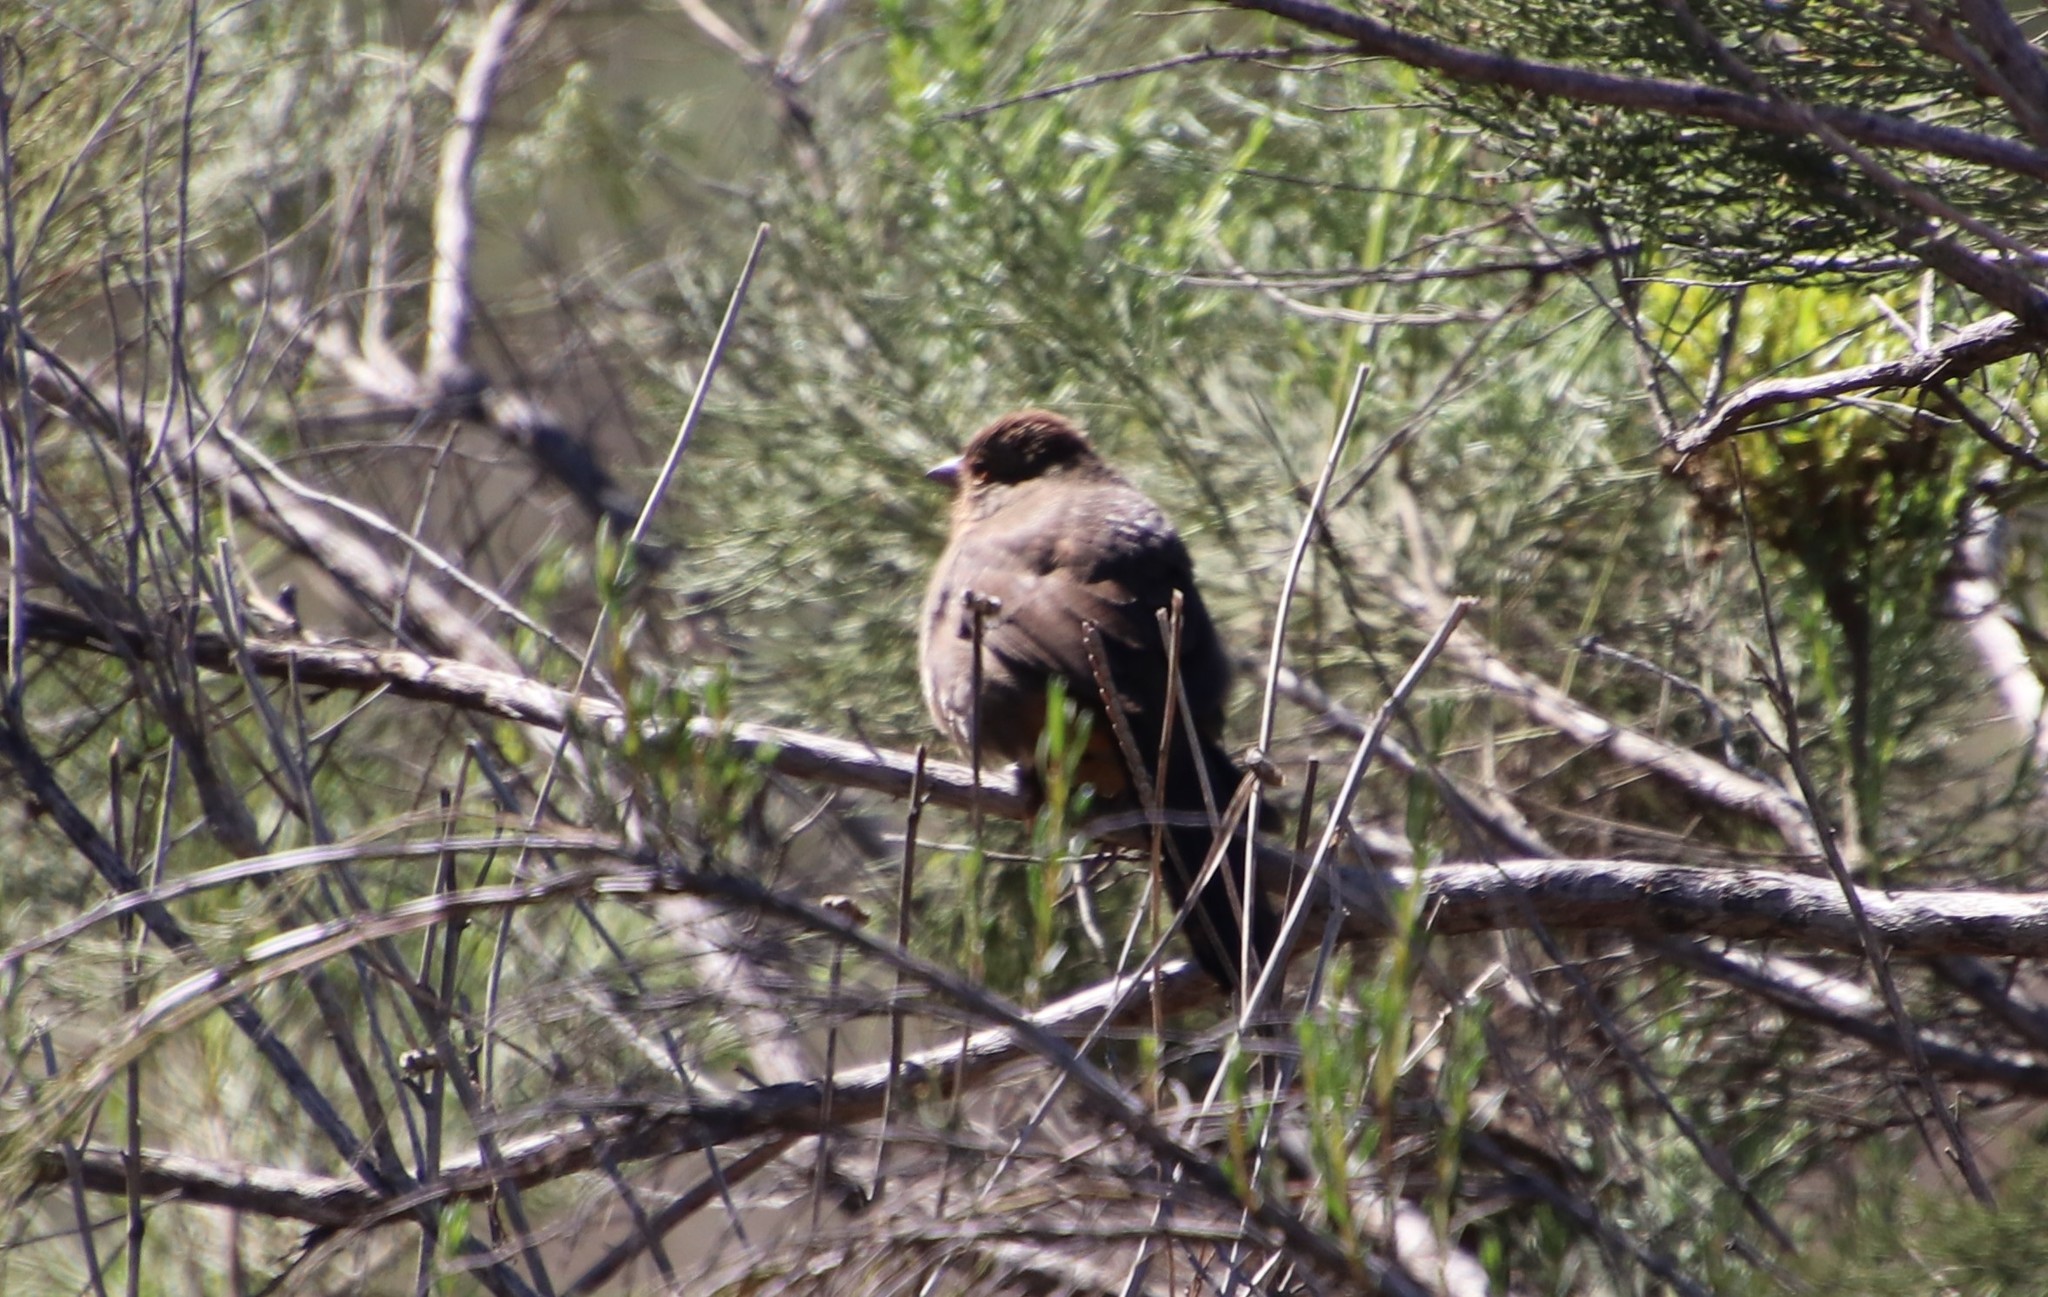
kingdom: Animalia
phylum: Chordata
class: Aves
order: Passeriformes
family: Passerellidae
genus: Melozone
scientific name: Melozone crissalis
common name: California towhee
